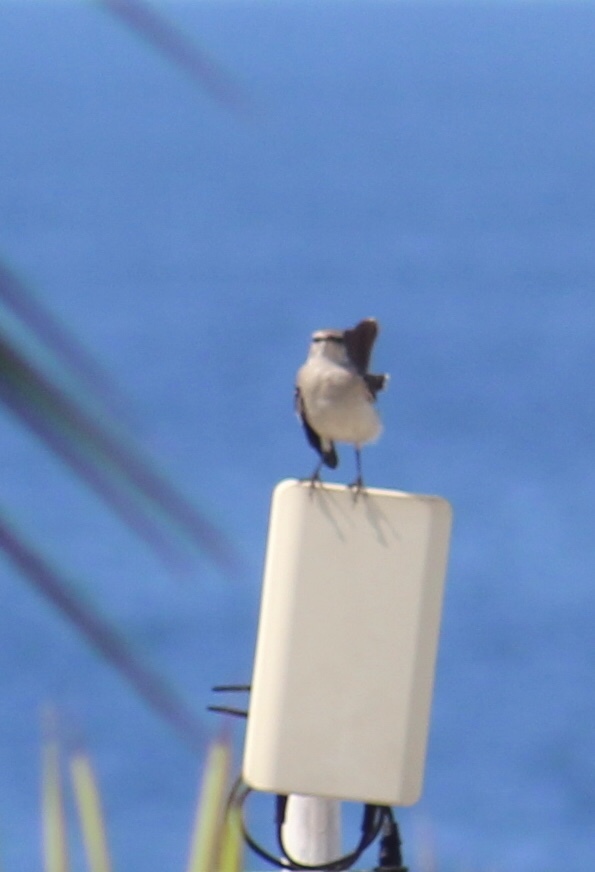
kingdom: Animalia
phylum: Chordata
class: Aves
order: Passeriformes
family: Mimidae
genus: Mimus
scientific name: Mimus polyglottos
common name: Northern mockingbird
